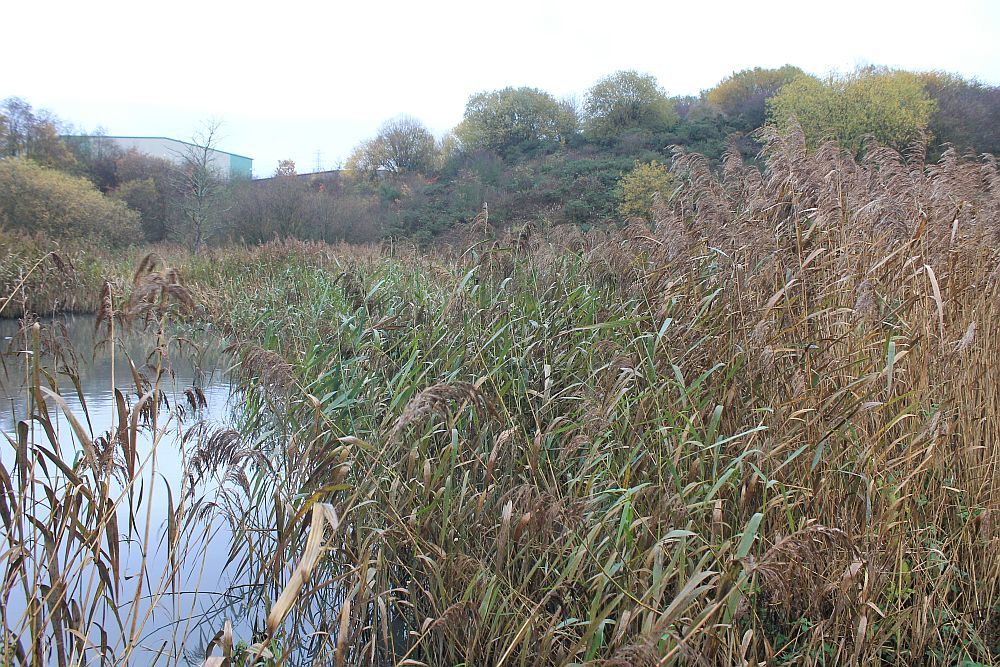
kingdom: Plantae
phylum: Tracheophyta
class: Liliopsida
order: Poales
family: Poaceae
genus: Phragmites
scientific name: Phragmites australis
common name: Common reed
